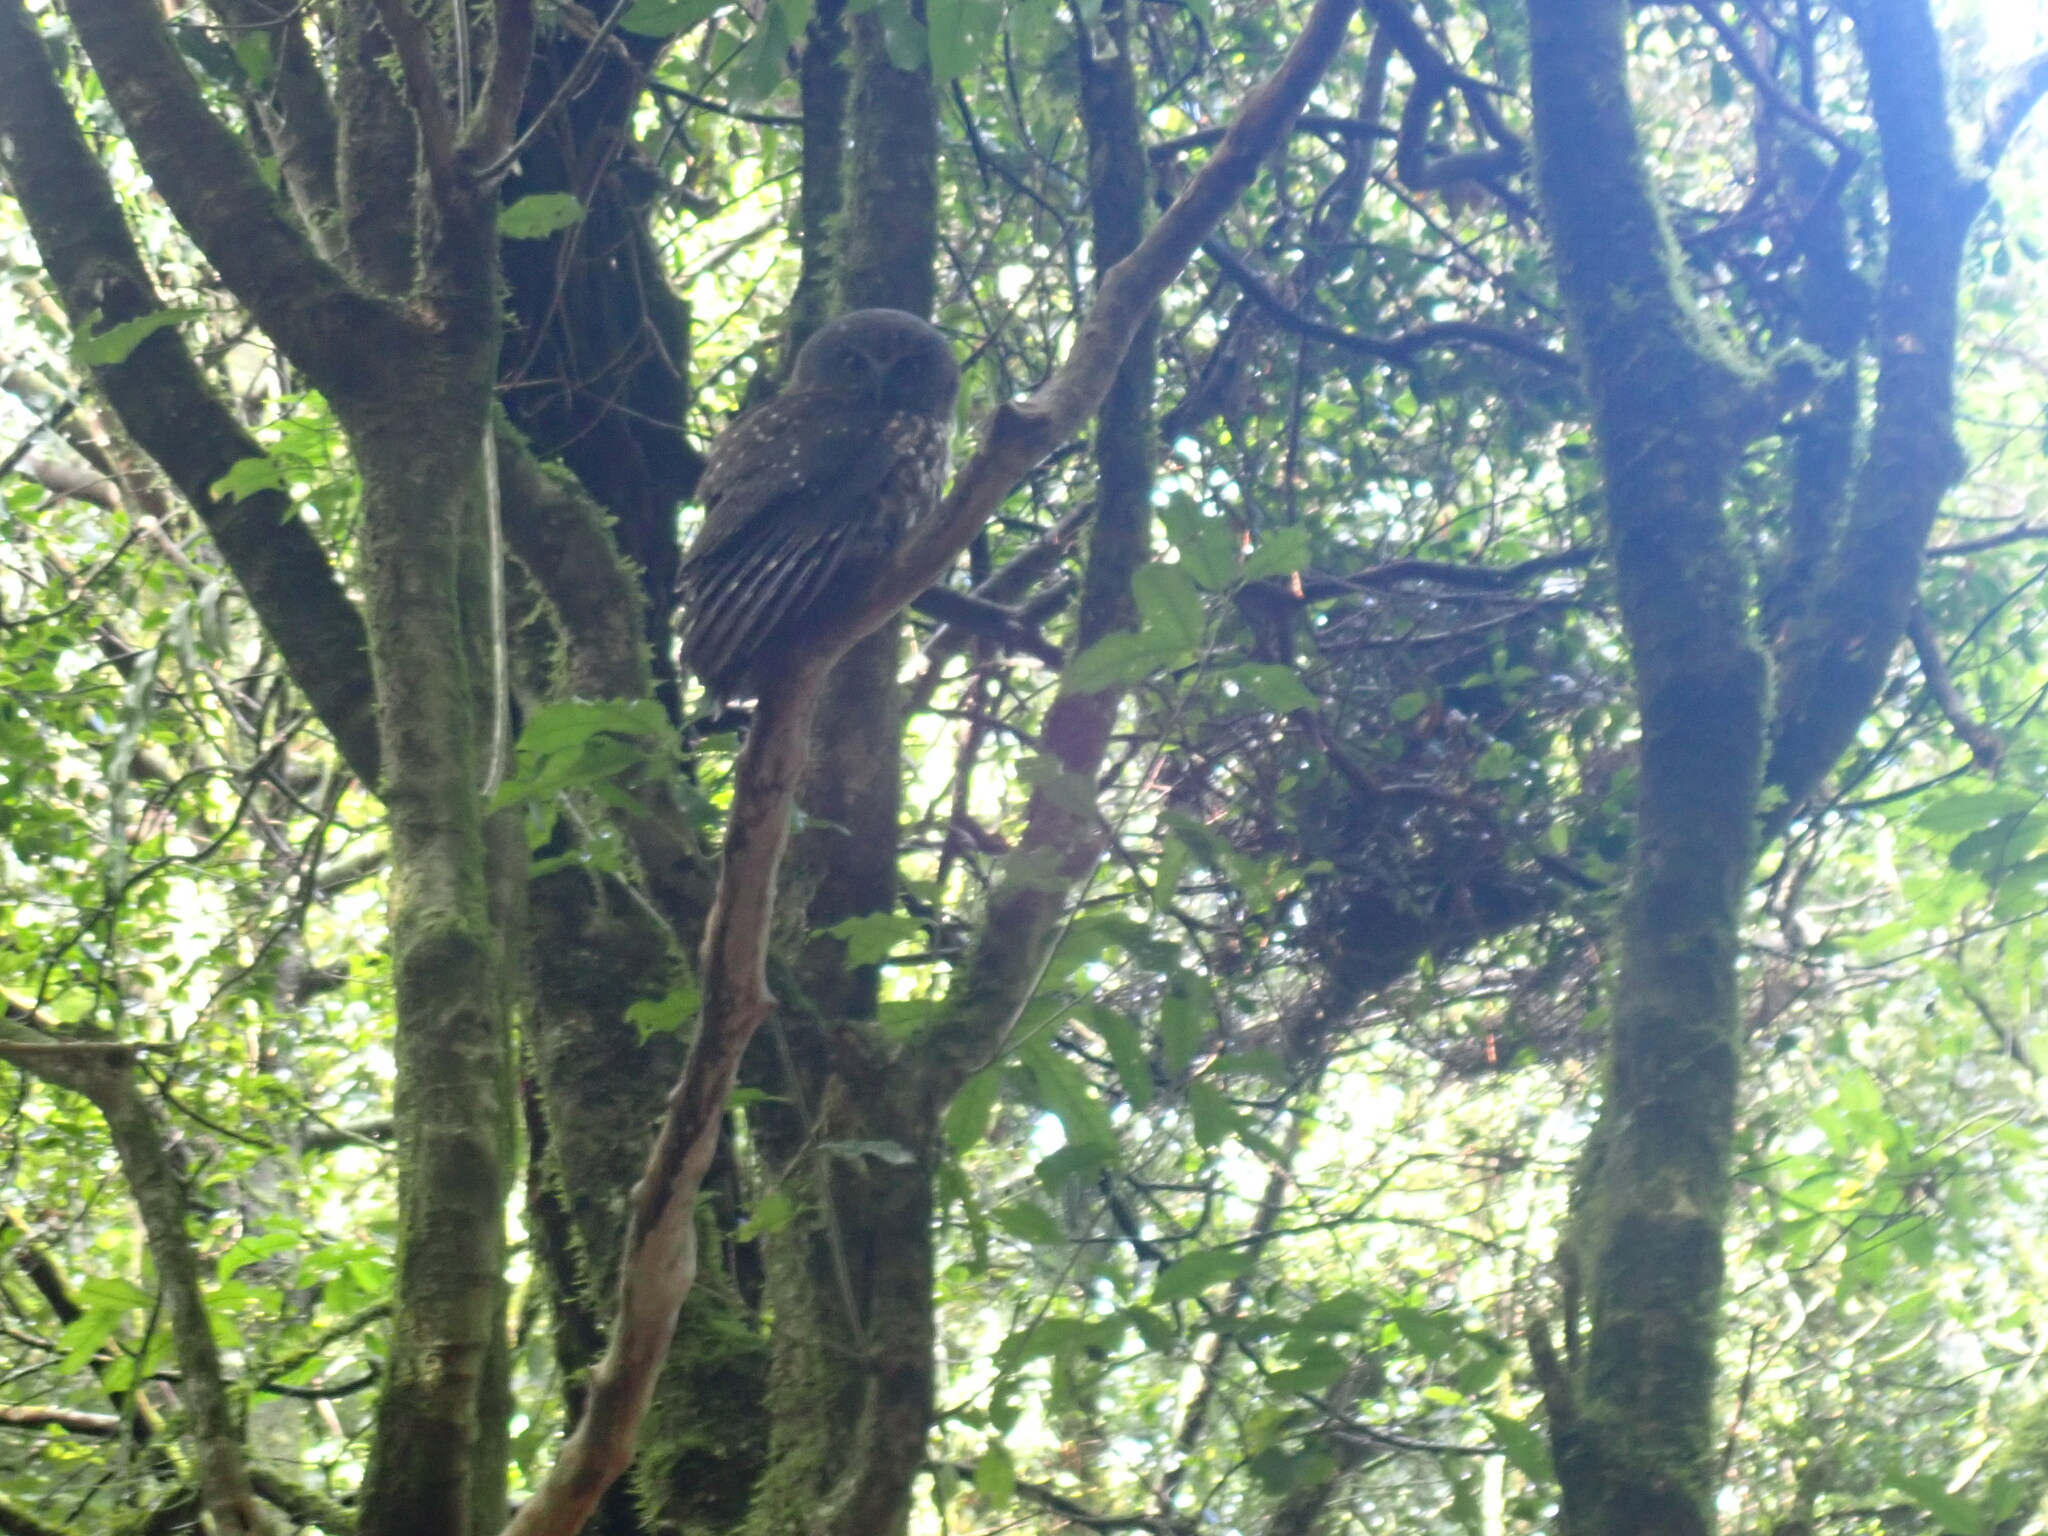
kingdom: Animalia
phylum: Chordata
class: Aves
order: Strigiformes
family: Strigidae
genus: Ninox
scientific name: Ninox novaeseelandiae
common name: Morepork
